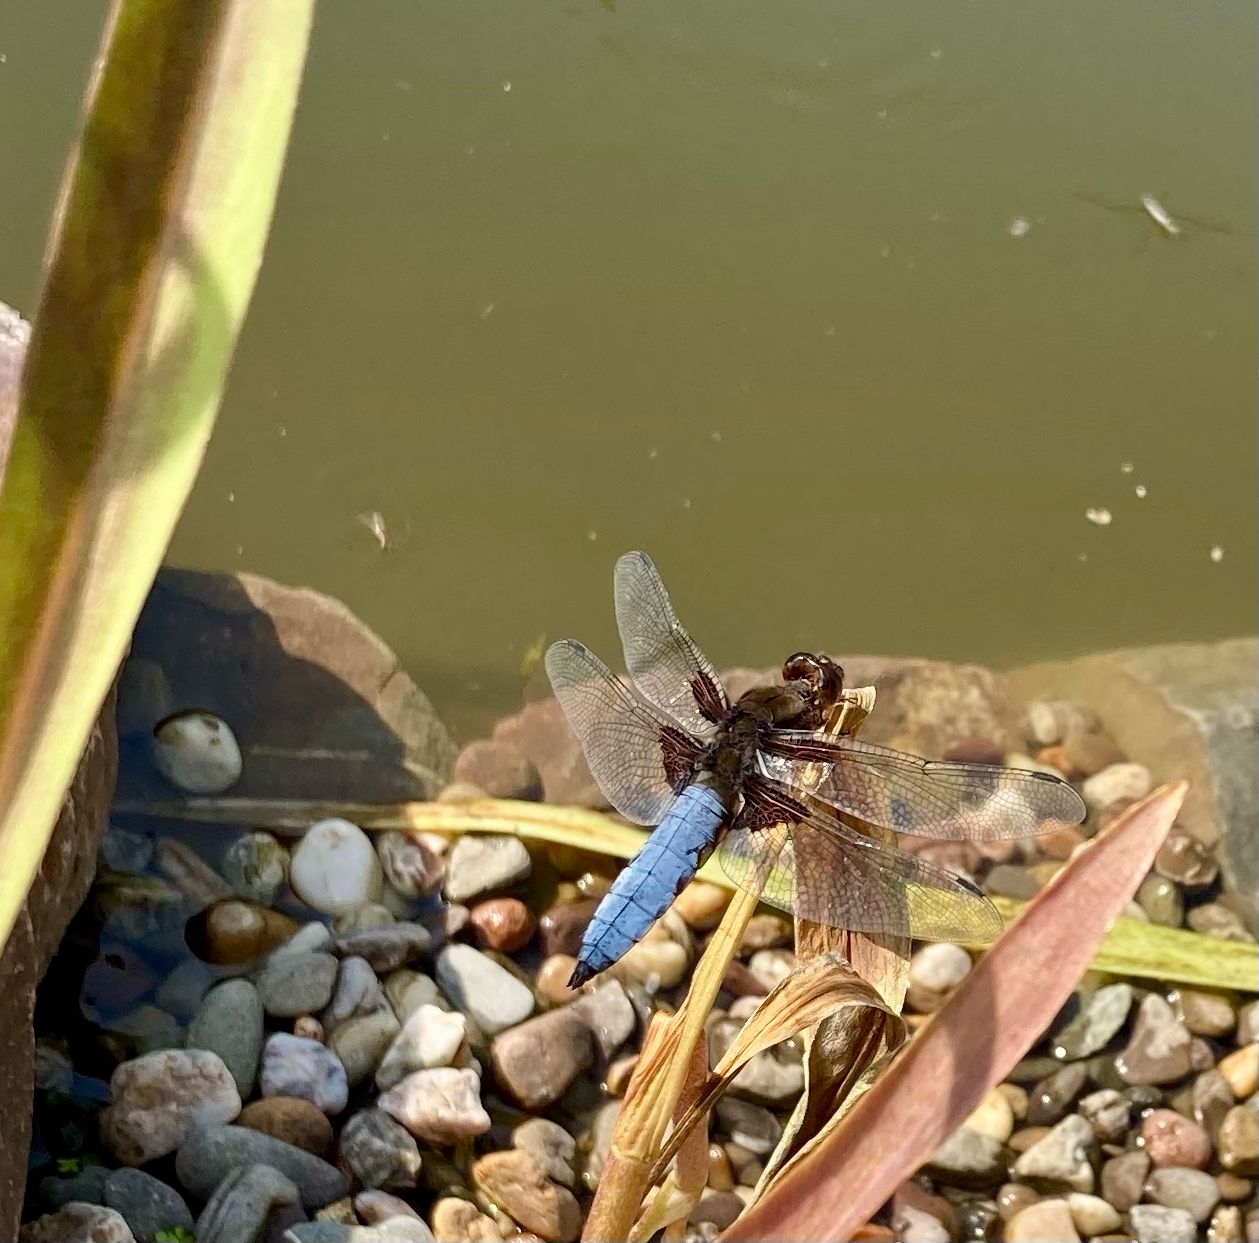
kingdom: Animalia
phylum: Arthropoda
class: Insecta
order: Odonata
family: Libellulidae
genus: Libellula
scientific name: Libellula depressa
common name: Broad-bodied chaser
